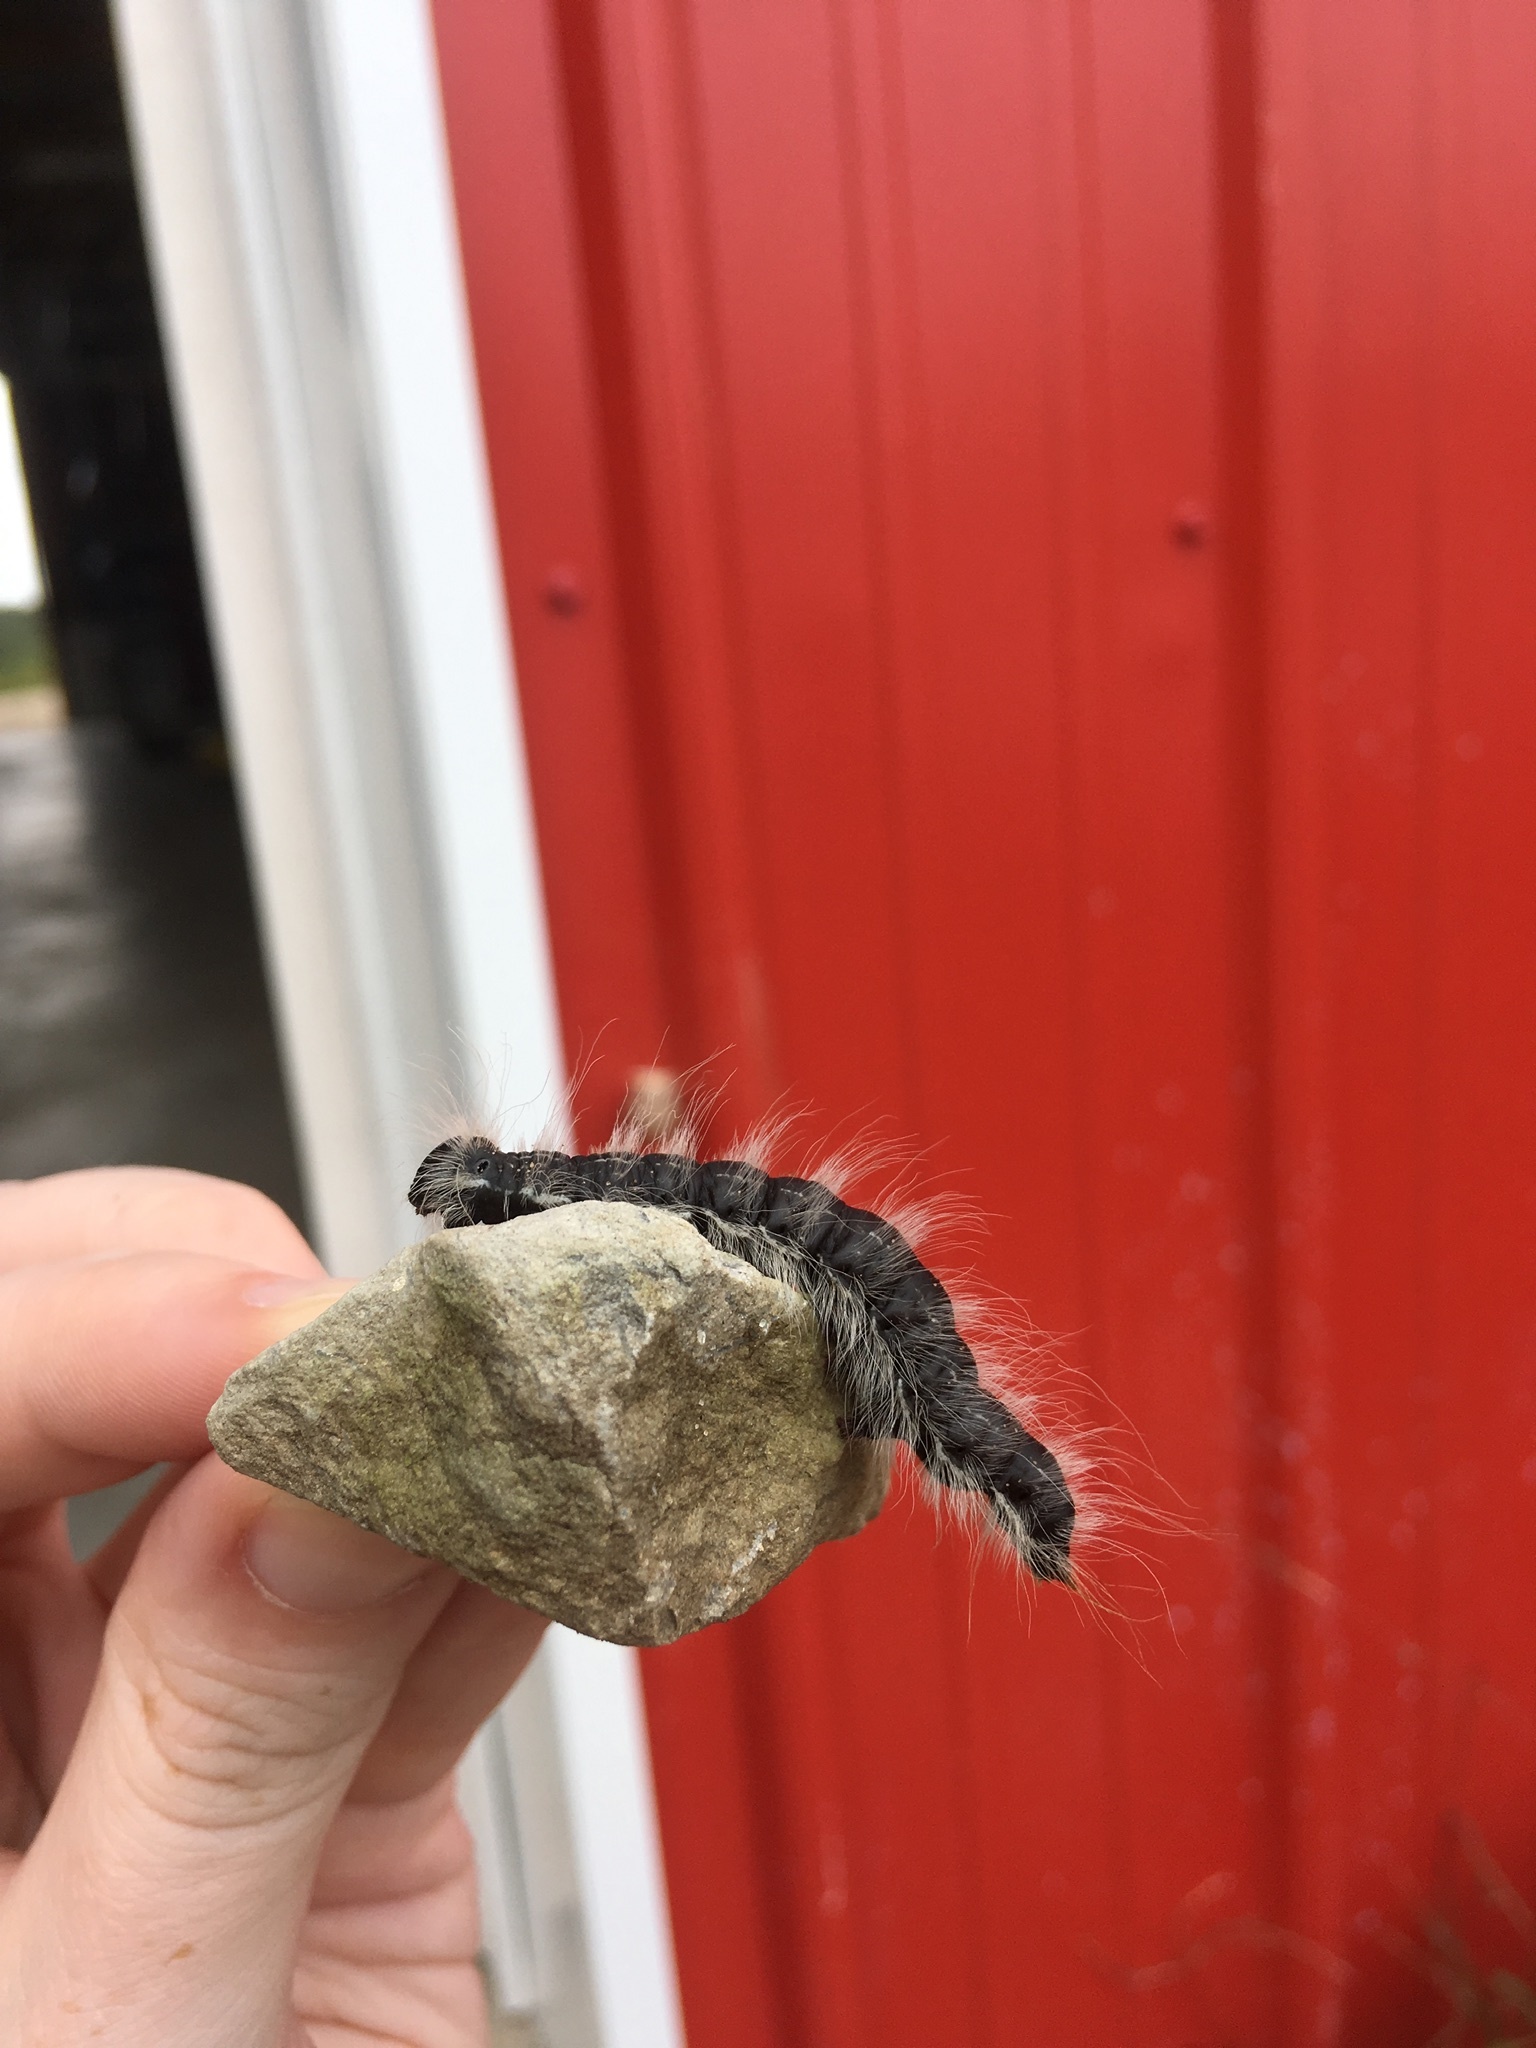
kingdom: Animalia
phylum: Arthropoda
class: Insecta
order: Lepidoptera
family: Notodontidae
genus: Datana
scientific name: Datana integerrima
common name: Walnut caterpillar
